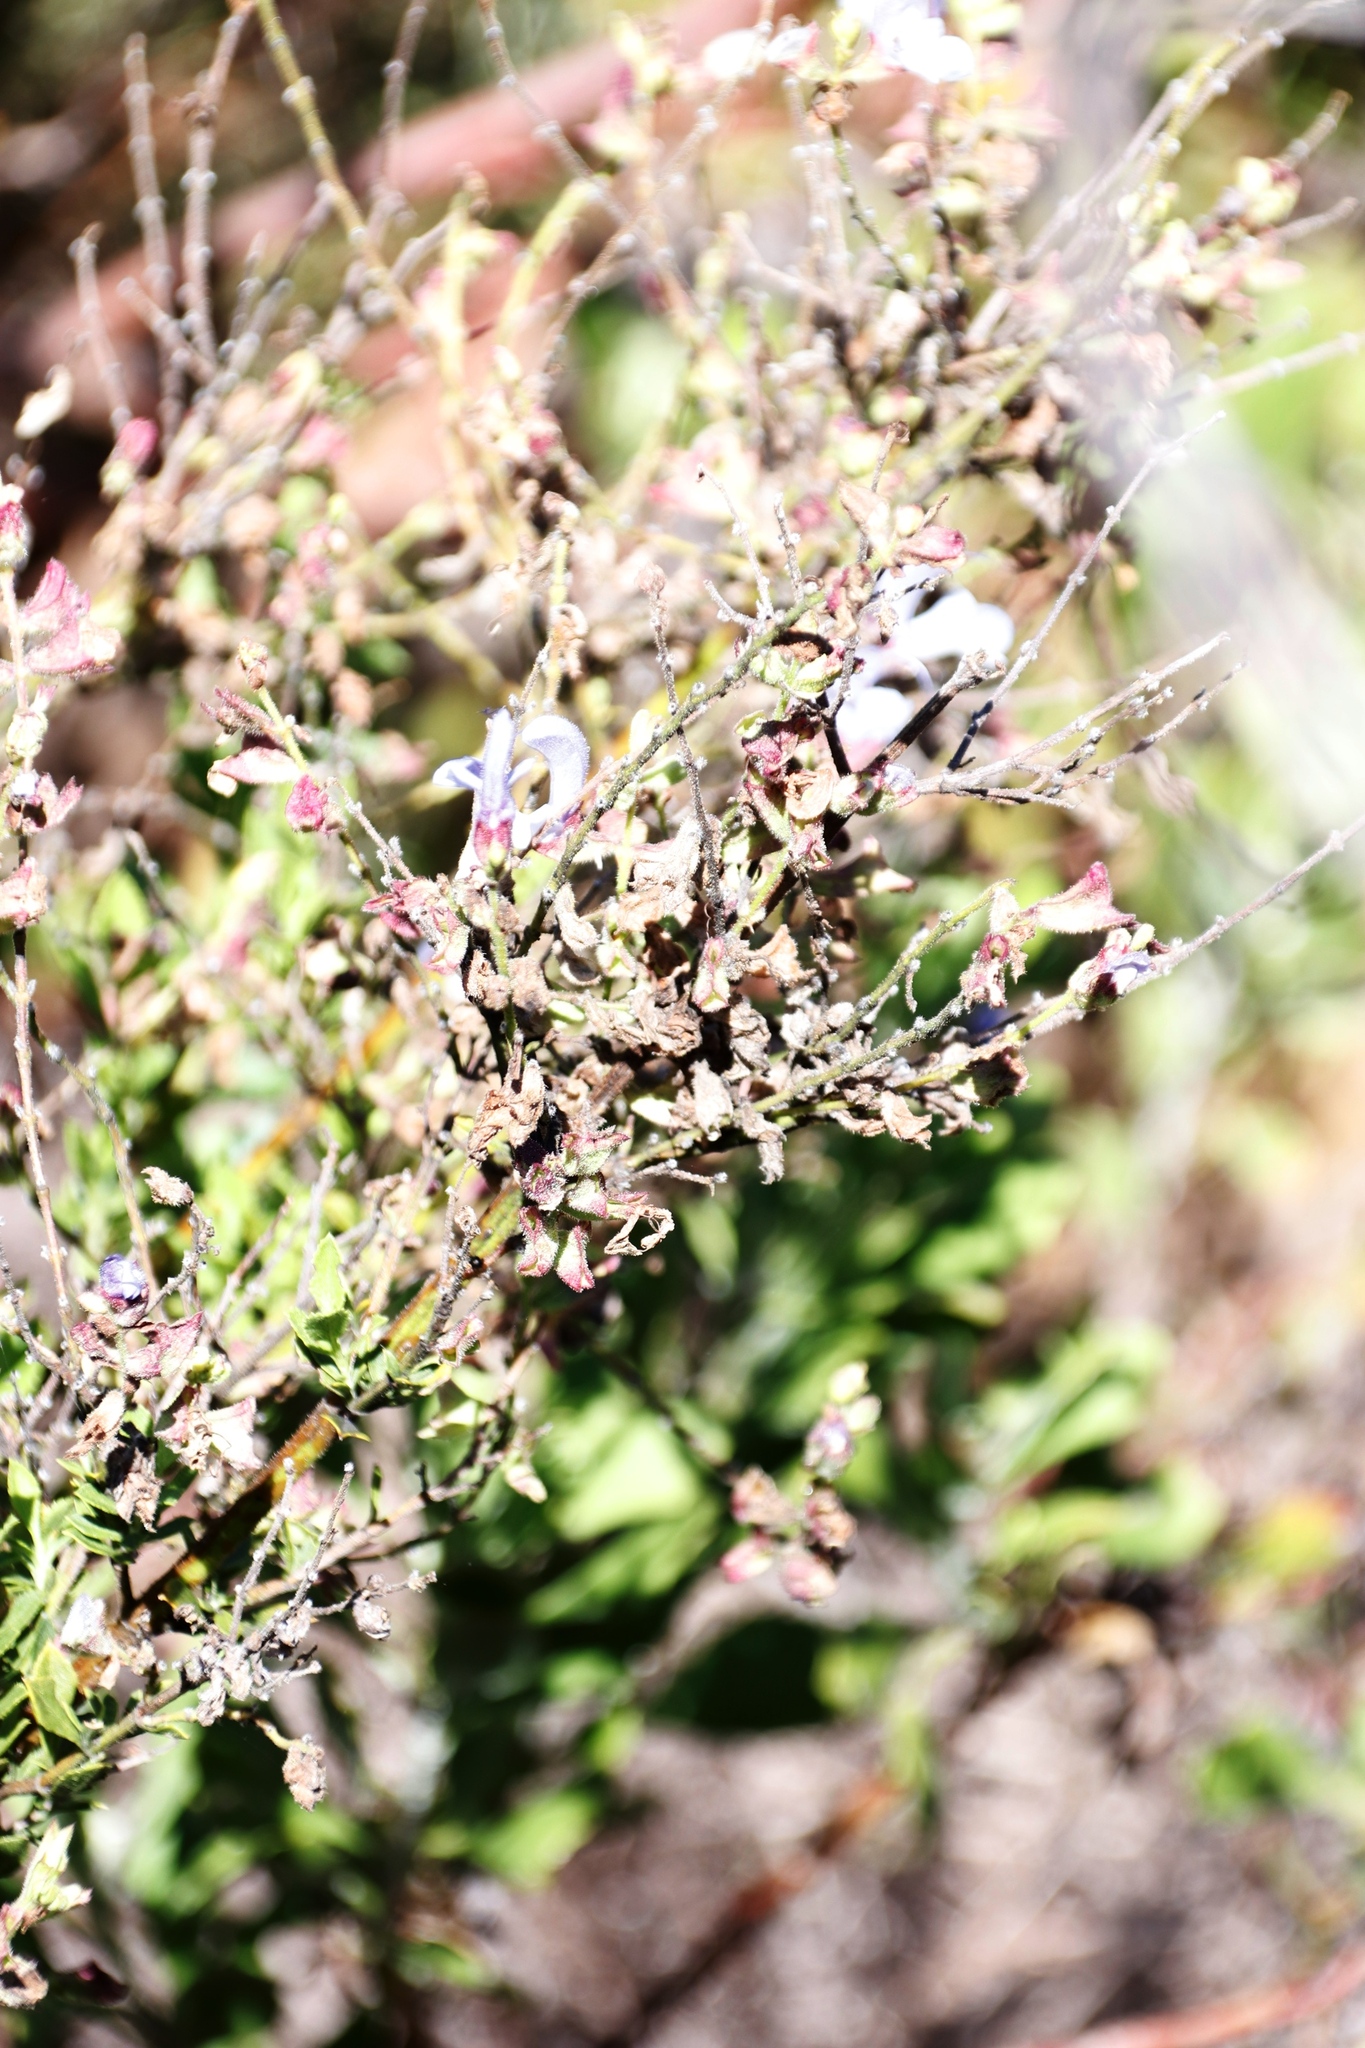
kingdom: Plantae
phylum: Tracheophyta
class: Magnoliopsida
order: Lamiales
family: Lamiaceae
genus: Salvia
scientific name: Salvia chamelaeagnea
